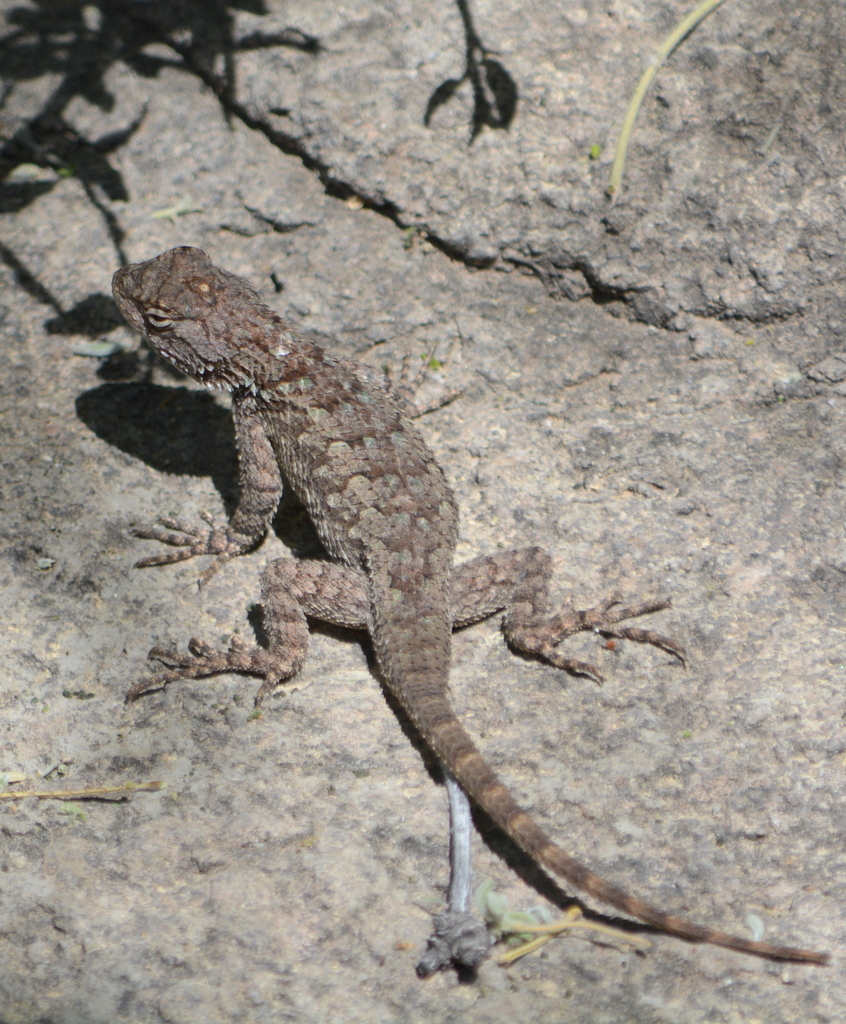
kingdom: Animalia
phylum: Chordata
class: Squamata
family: Phrynosomatidae
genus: Sceloporus
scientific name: Sceloporus clarkii
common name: Clark's spiny lizard
